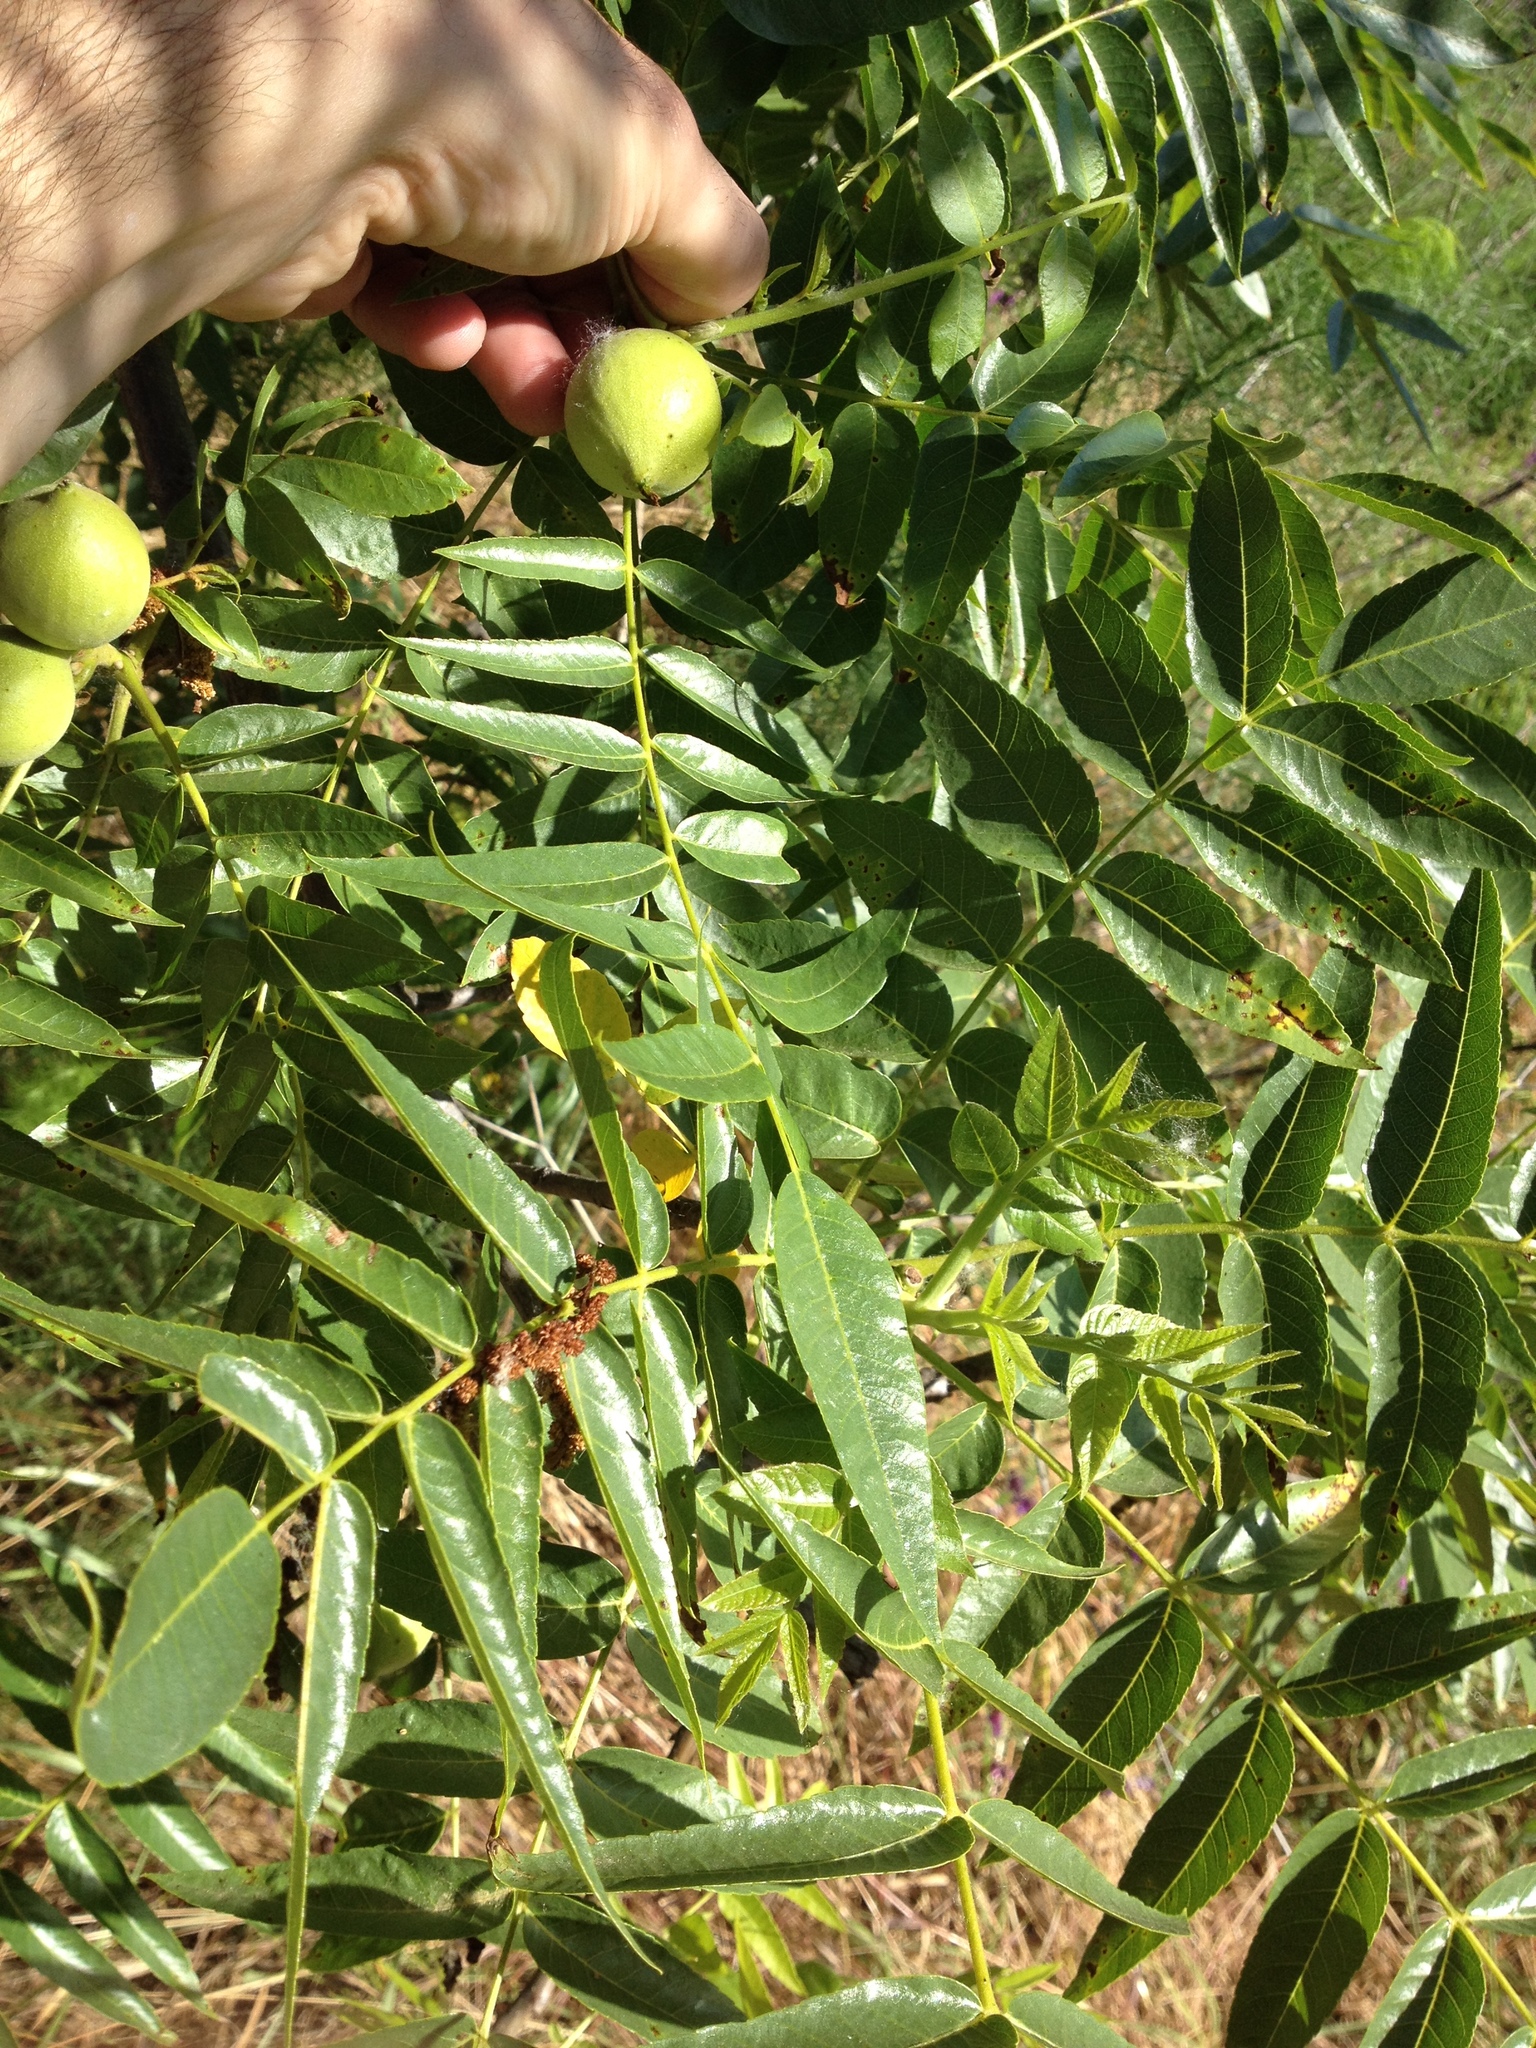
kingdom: Plantae
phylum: Tracheophyta
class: Magnoliopsida
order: Fagales
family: Juglandaceae
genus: Juglans
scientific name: Juglans hindsii
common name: Northern california black walnut
